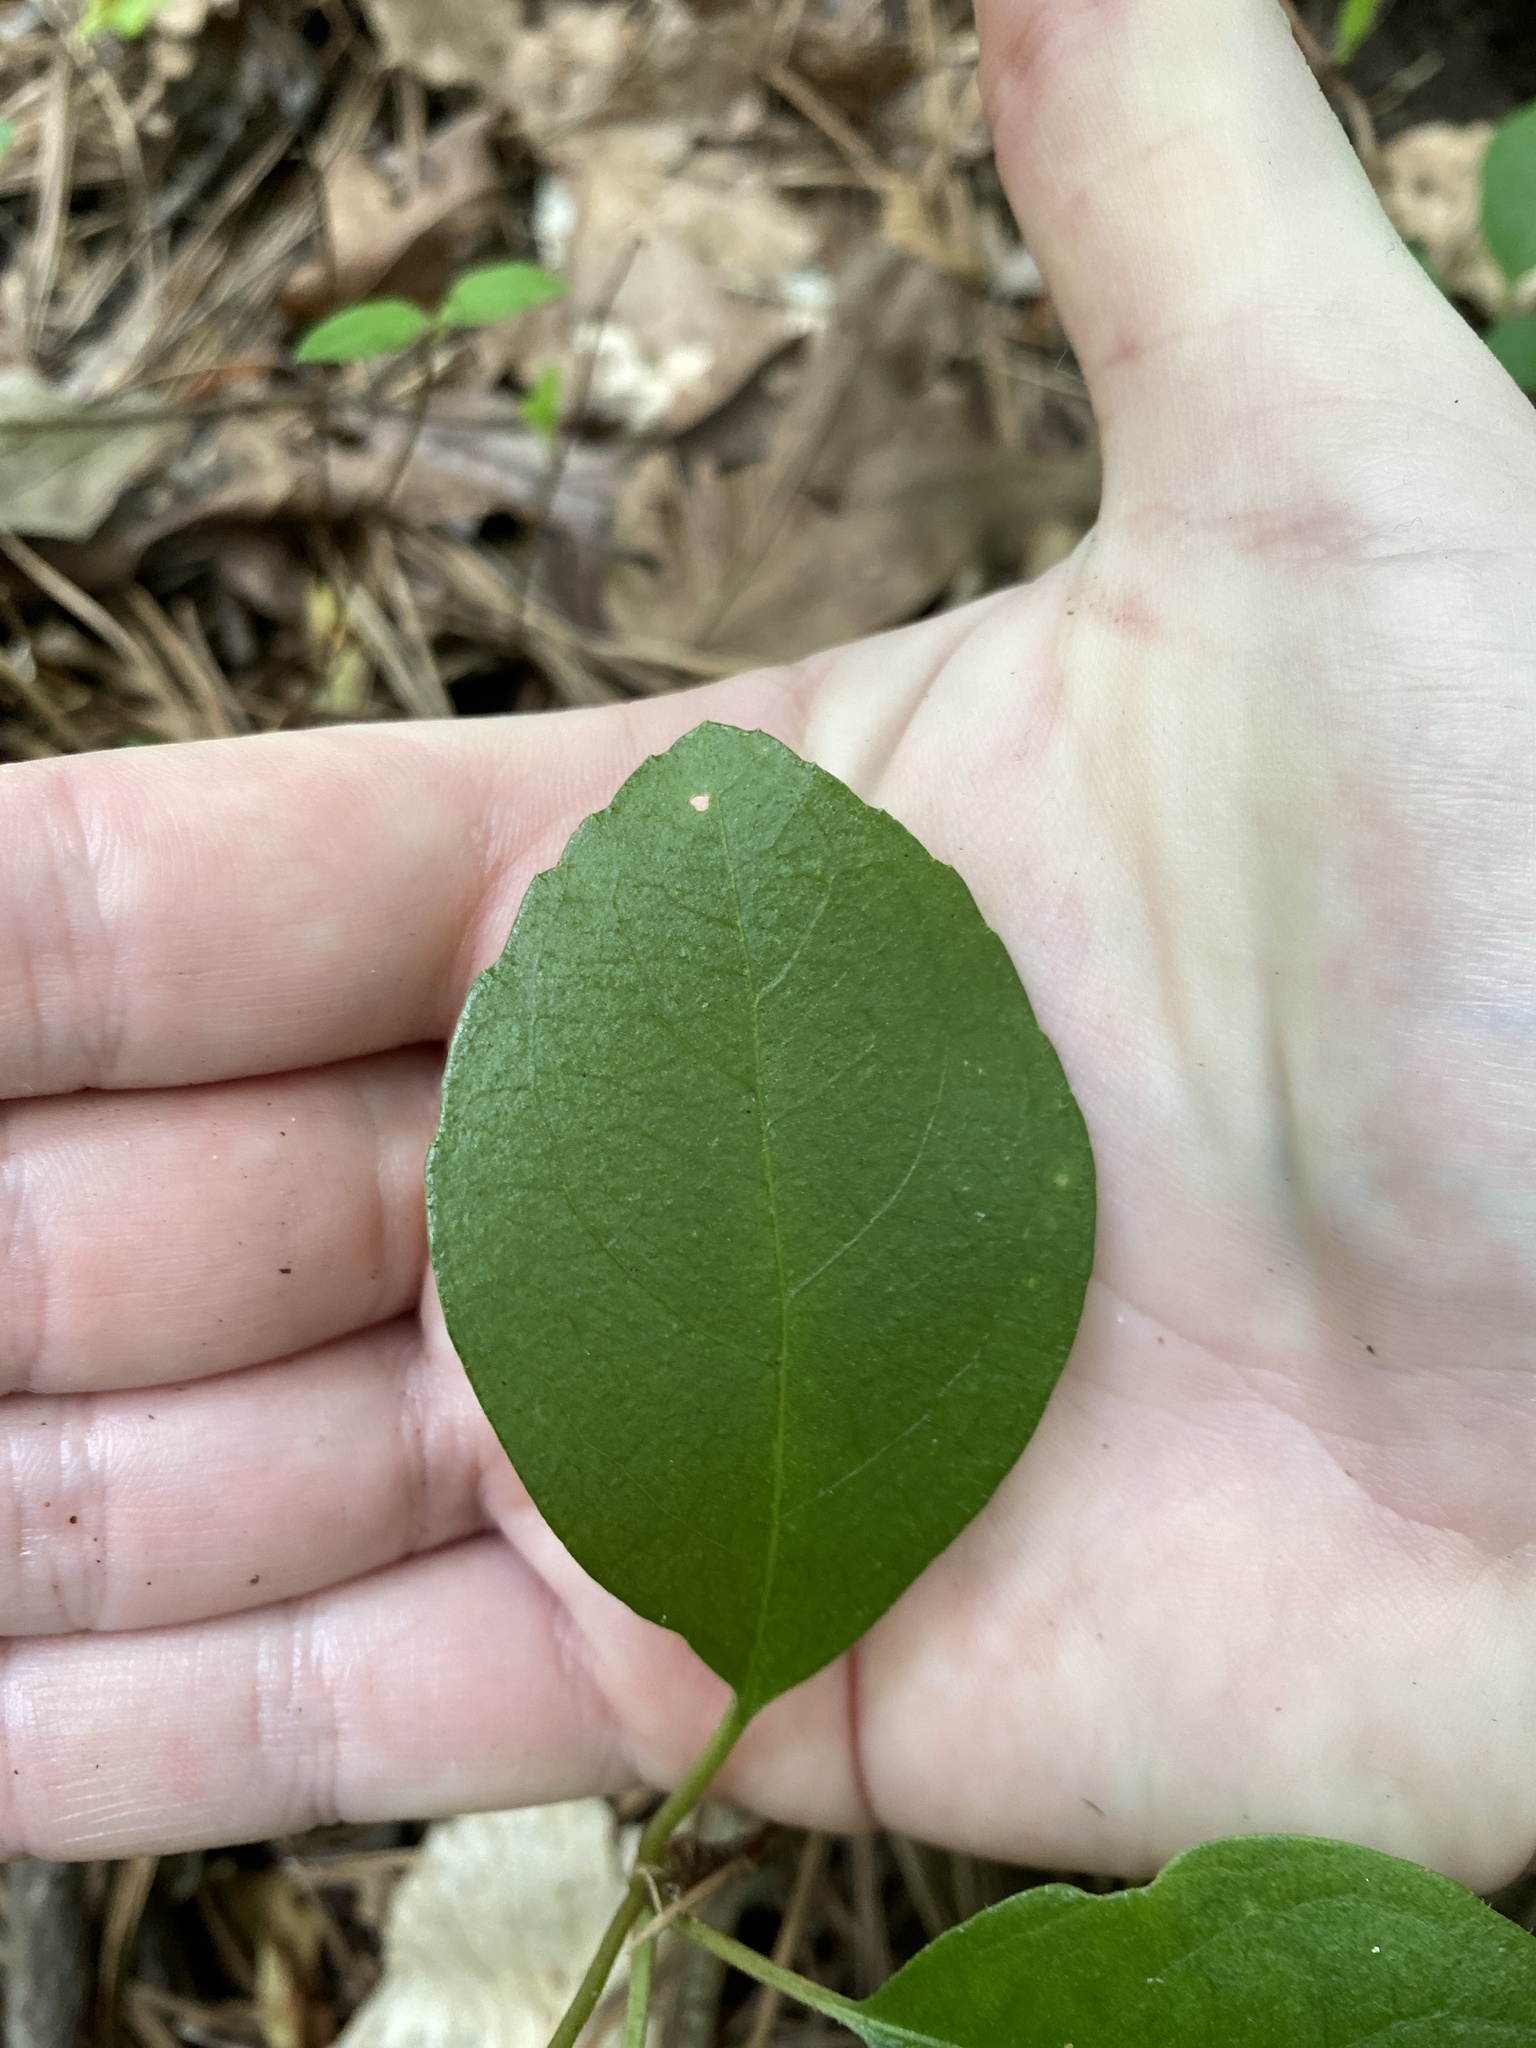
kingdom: Plantae
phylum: Tracheophyta
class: Magnoliopsida
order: Cornales
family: Hydrangeaceae
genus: Hydrangea
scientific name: Hydrangea barbara
